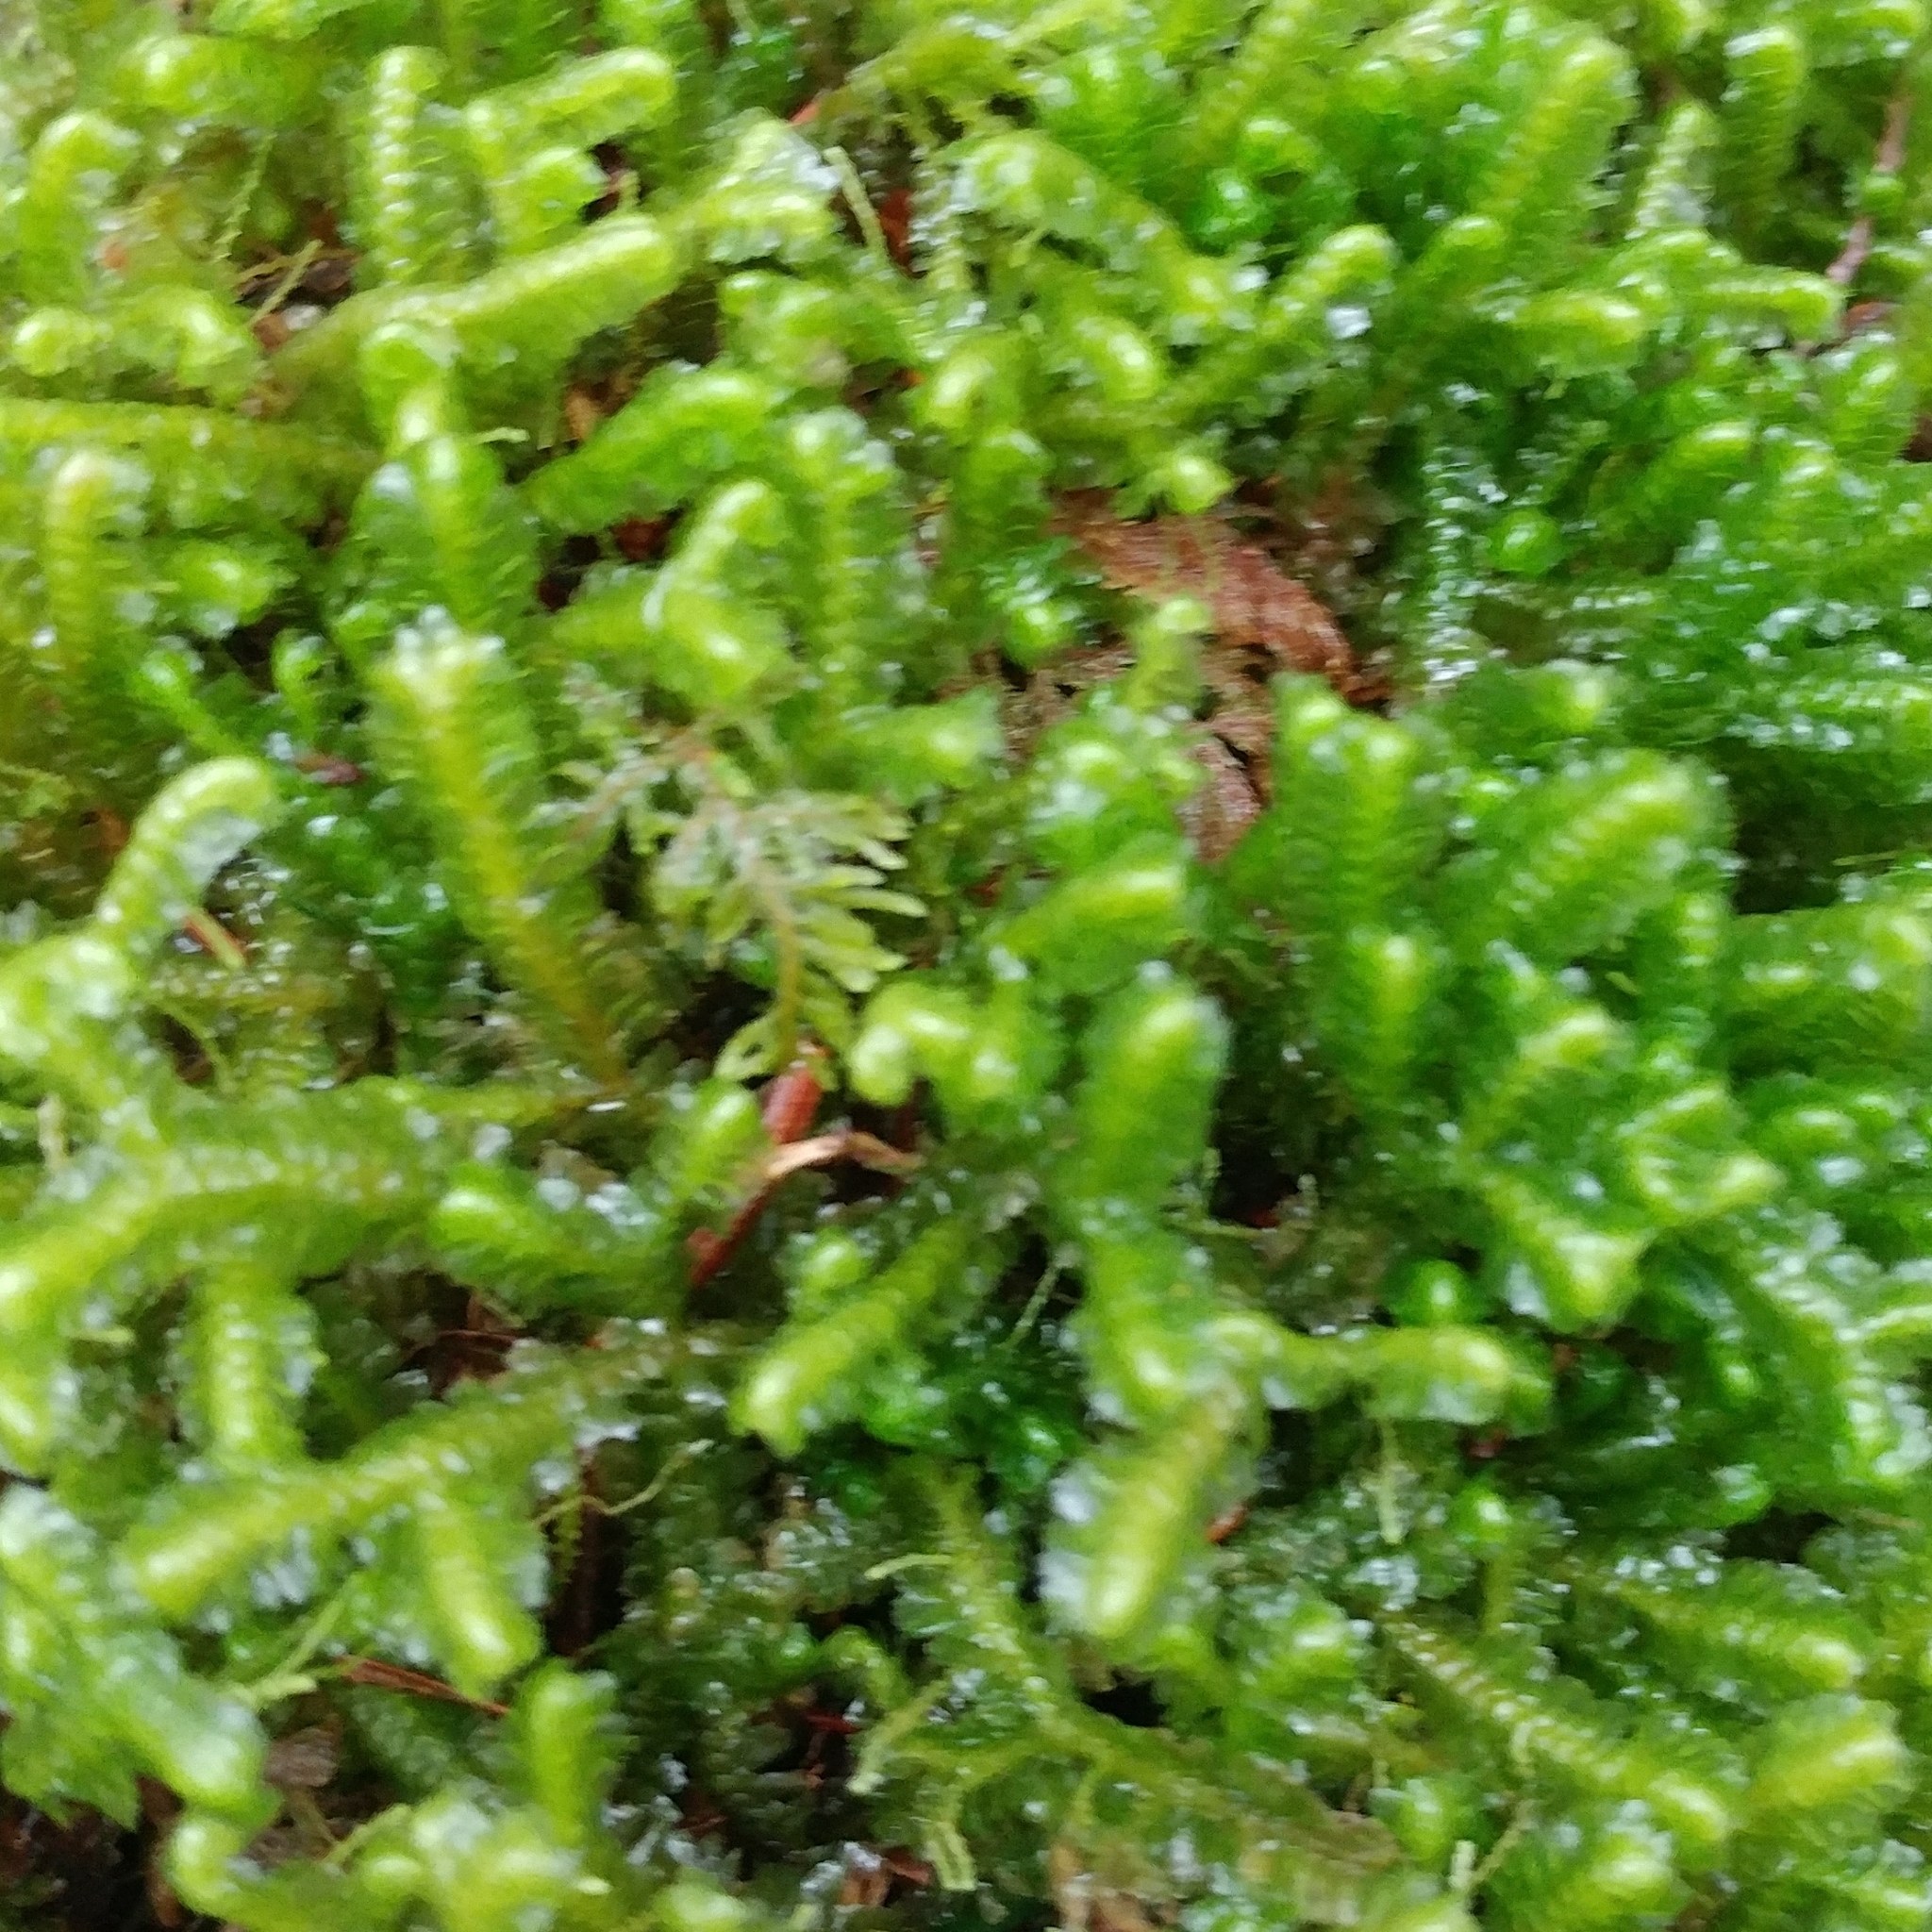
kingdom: Plantae
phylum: Marchantiophyta
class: Jungermanniopsida
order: Jungermanniales
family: Lepidoziaceae
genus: Bazzania
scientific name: Bazzania trilobata
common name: Three-lobed whipwort
